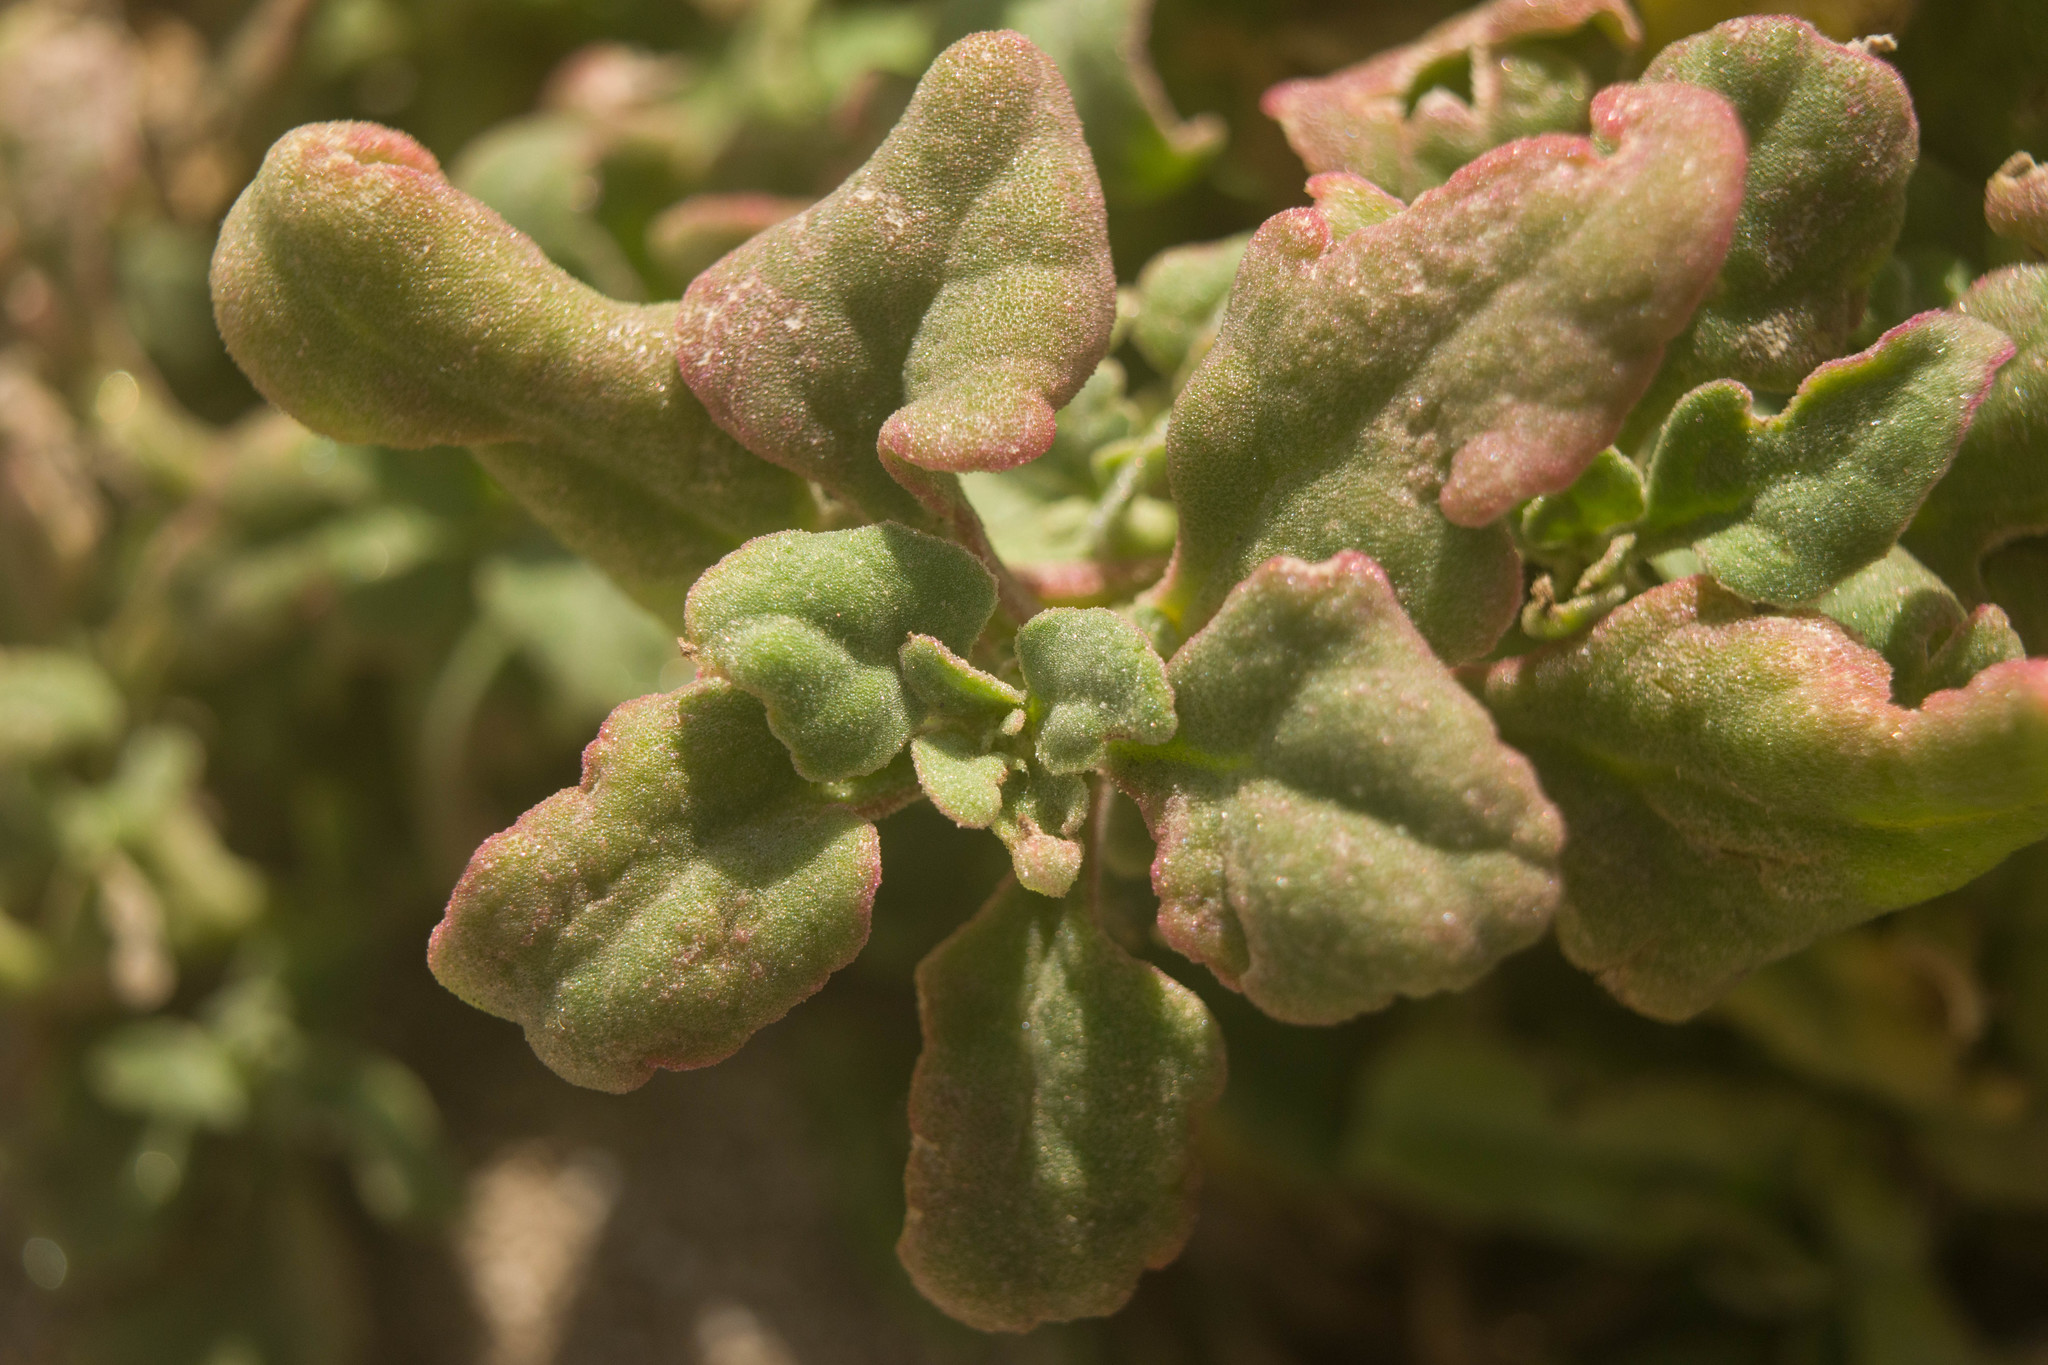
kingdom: Plantae
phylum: Tracheophyta
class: Magnoliopsida
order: Caryophyllales
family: Aizoaceae
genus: Tetragonia
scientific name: Tetragonia tetragonoides
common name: New zealand-spinach
